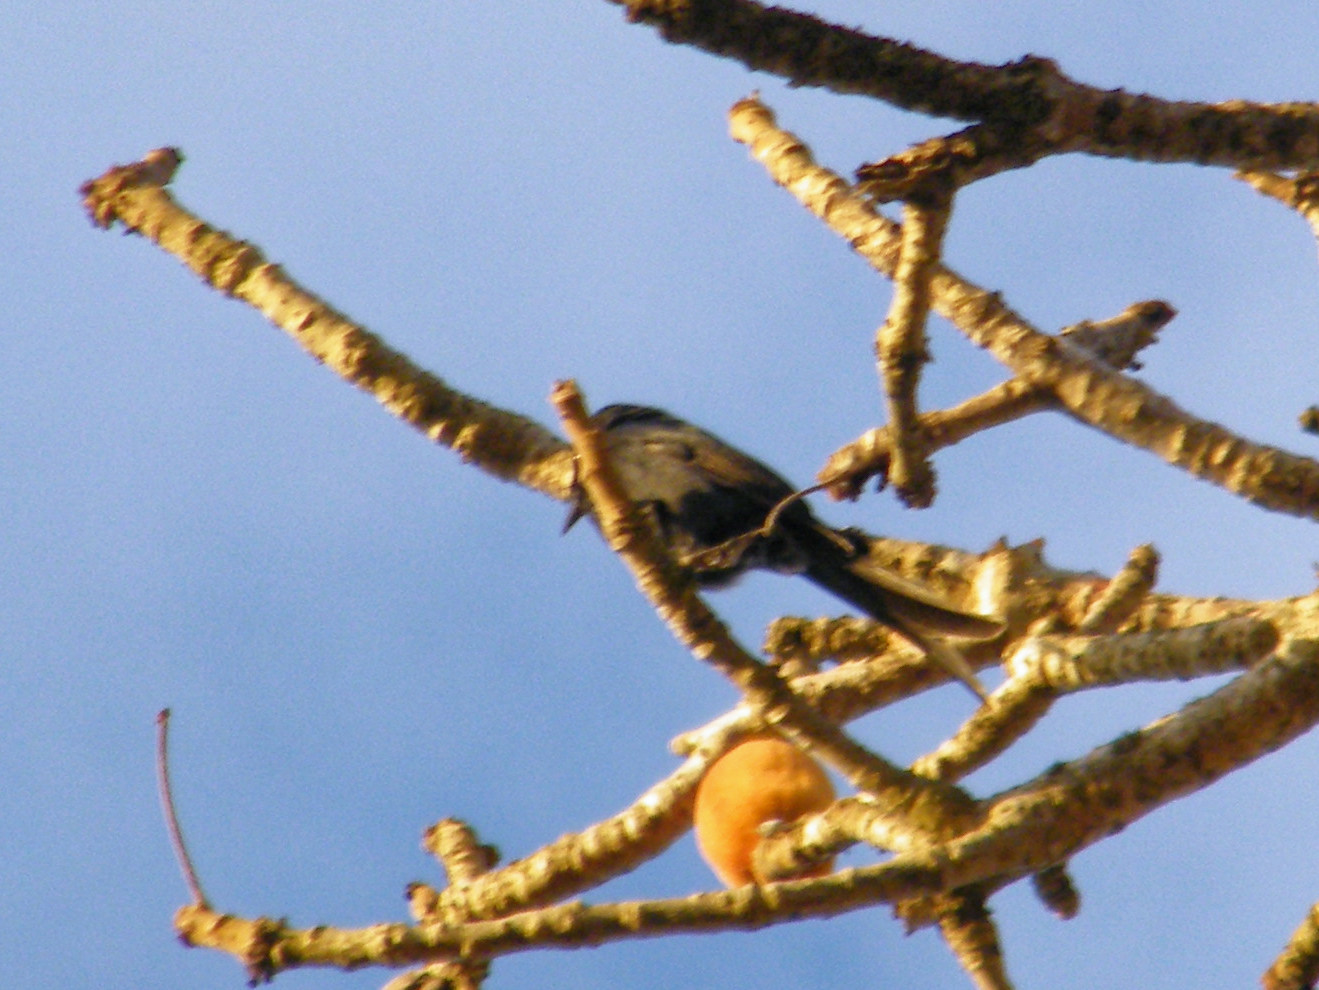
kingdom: Animalia
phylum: Chordata
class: Aves
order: Passeriformes
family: Dicruridae
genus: Dicrurus
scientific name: Dicrurus forficatus
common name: Crested drongo
